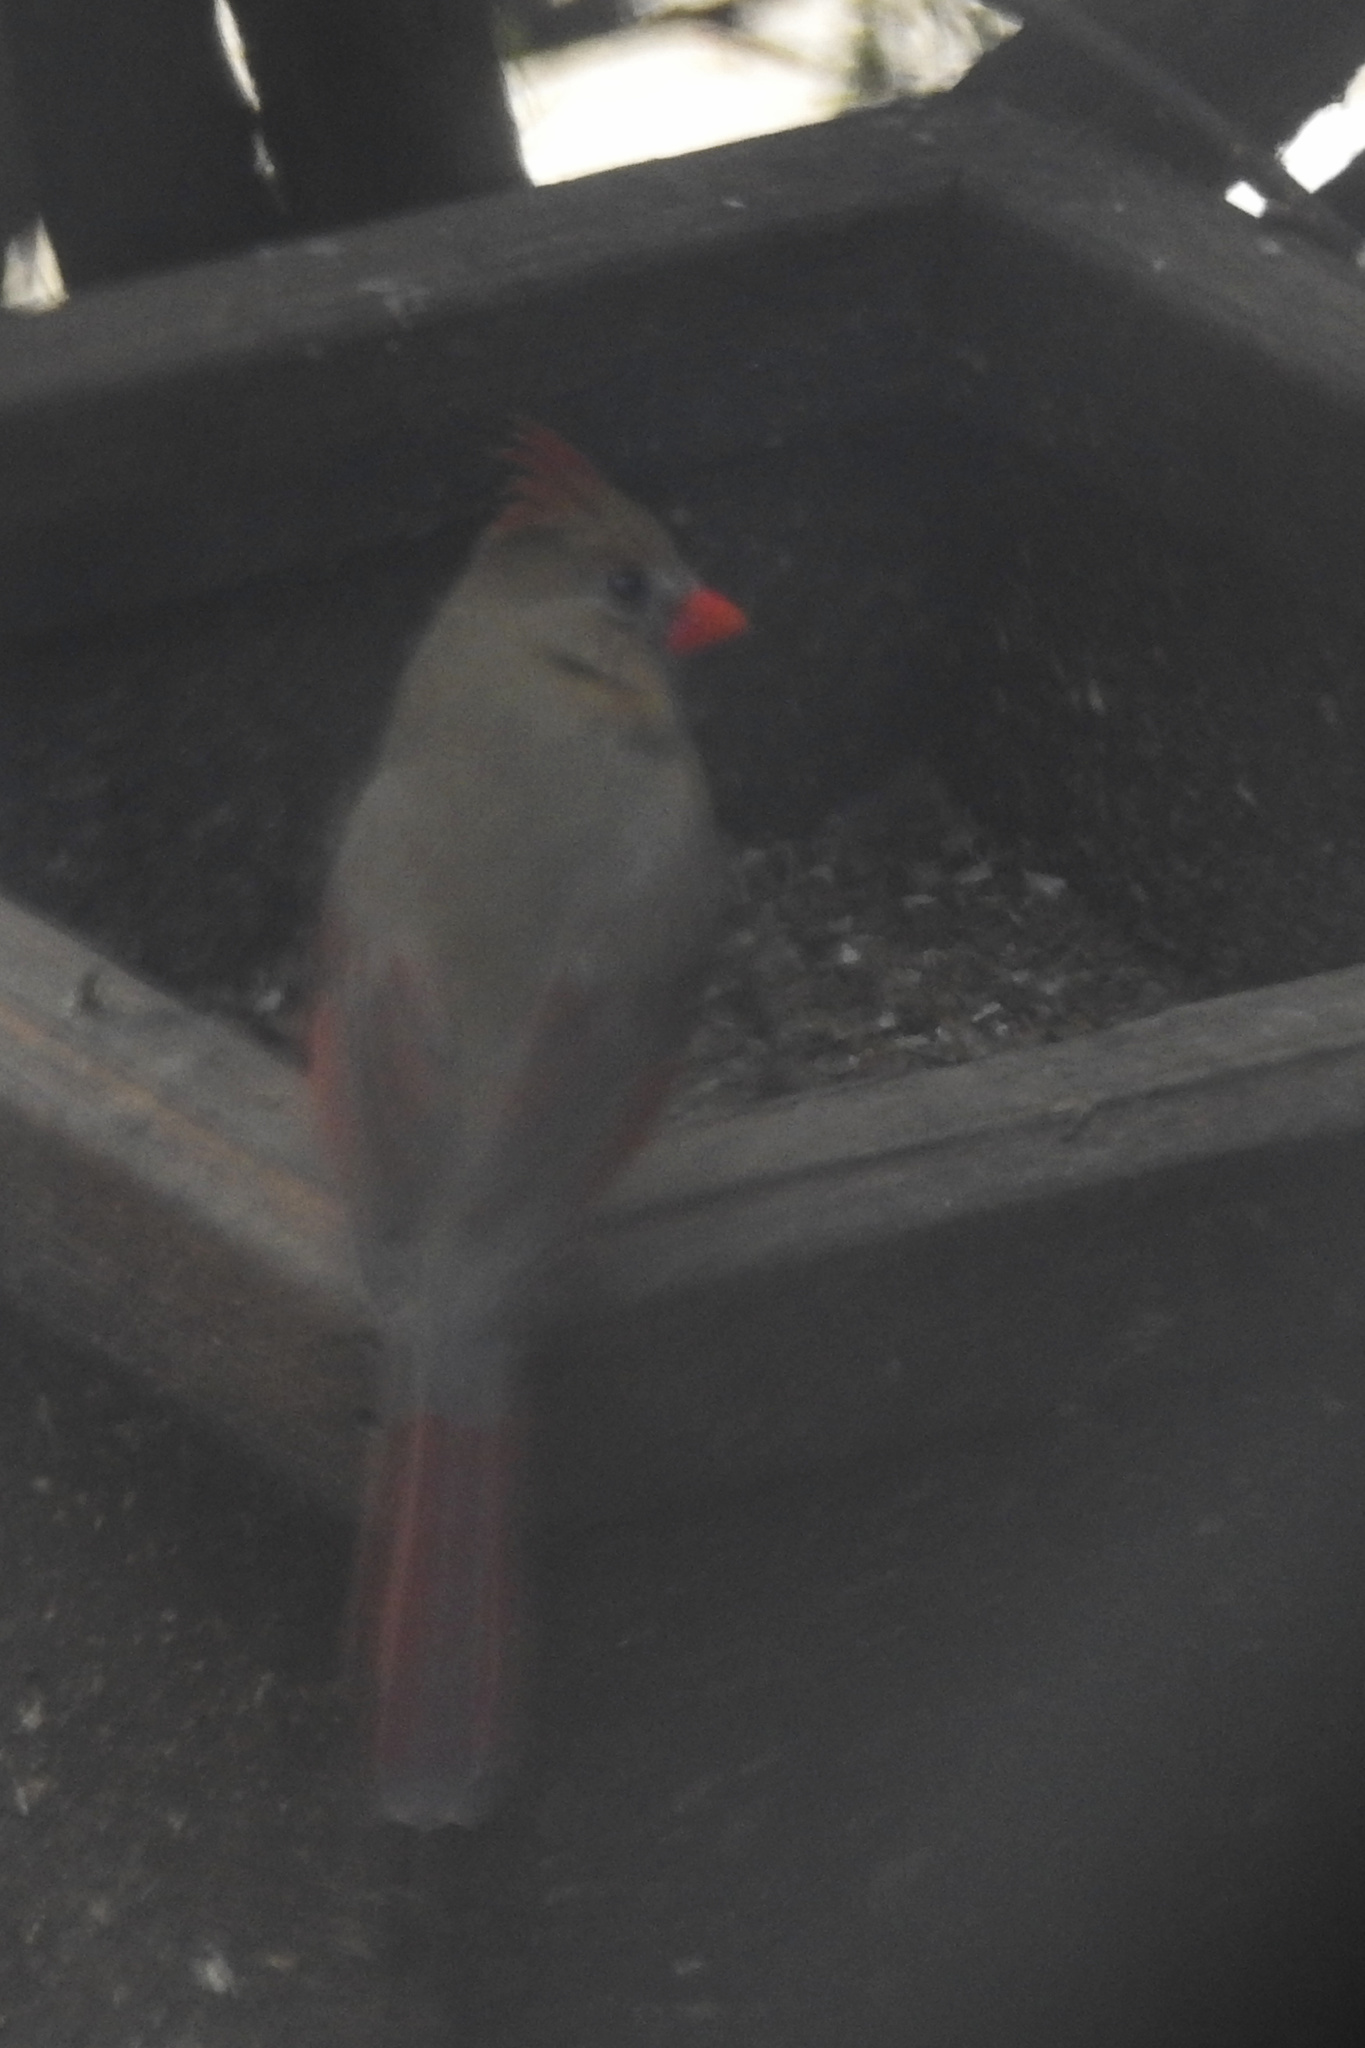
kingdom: Animalia
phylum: Chordata
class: Aves
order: Passeriformes
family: Cardinalidae
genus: Cardinalis
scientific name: Cardinalis cardinalis
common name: Northern cardinal
